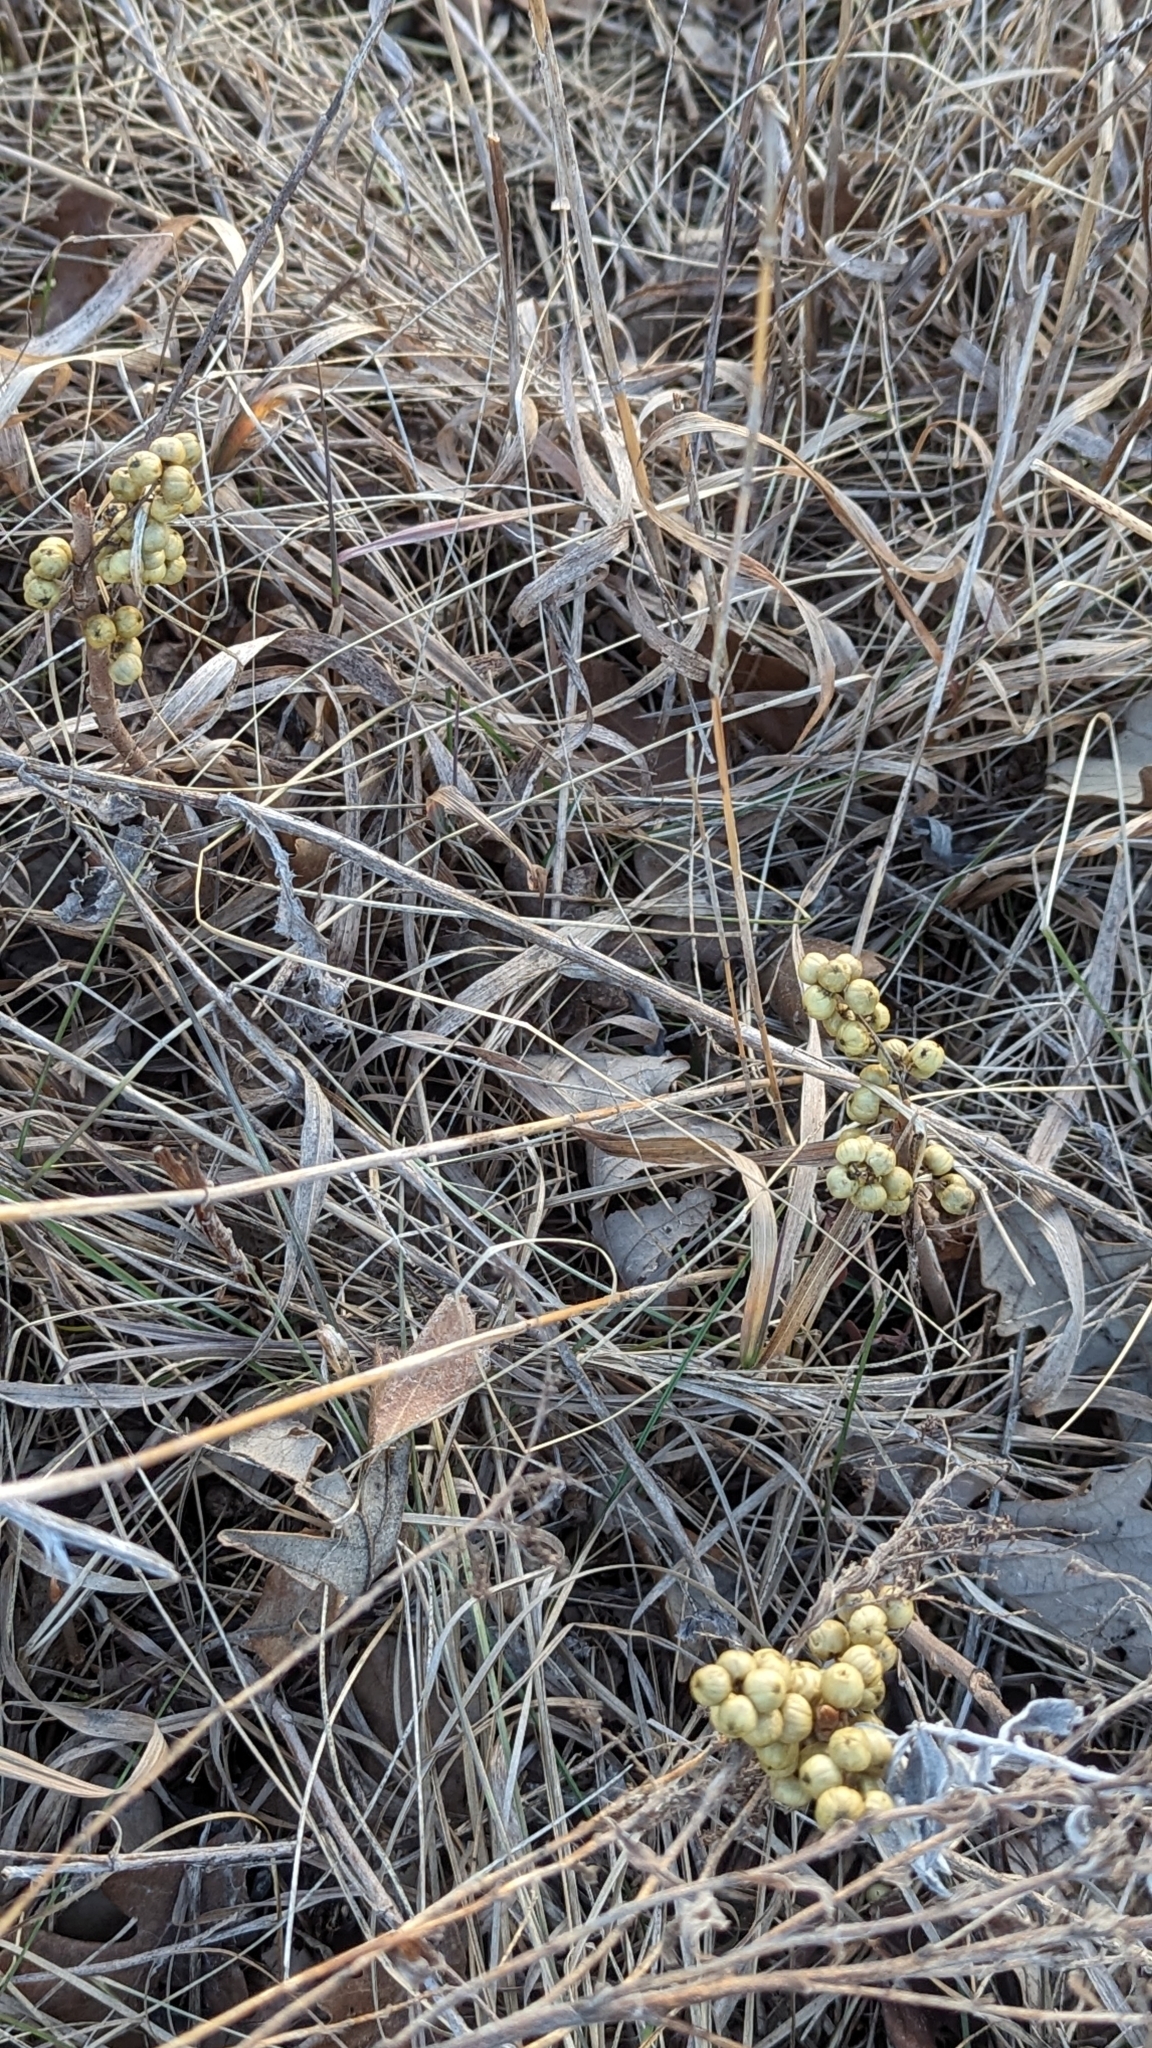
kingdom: Plantae
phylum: Tracheophyta
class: Magnoliopsida
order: Sapindales
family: Anacardiaceae
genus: Toxicodendron
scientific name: Toxicodendron rydbergii
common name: Rydberg's poison-ivy
